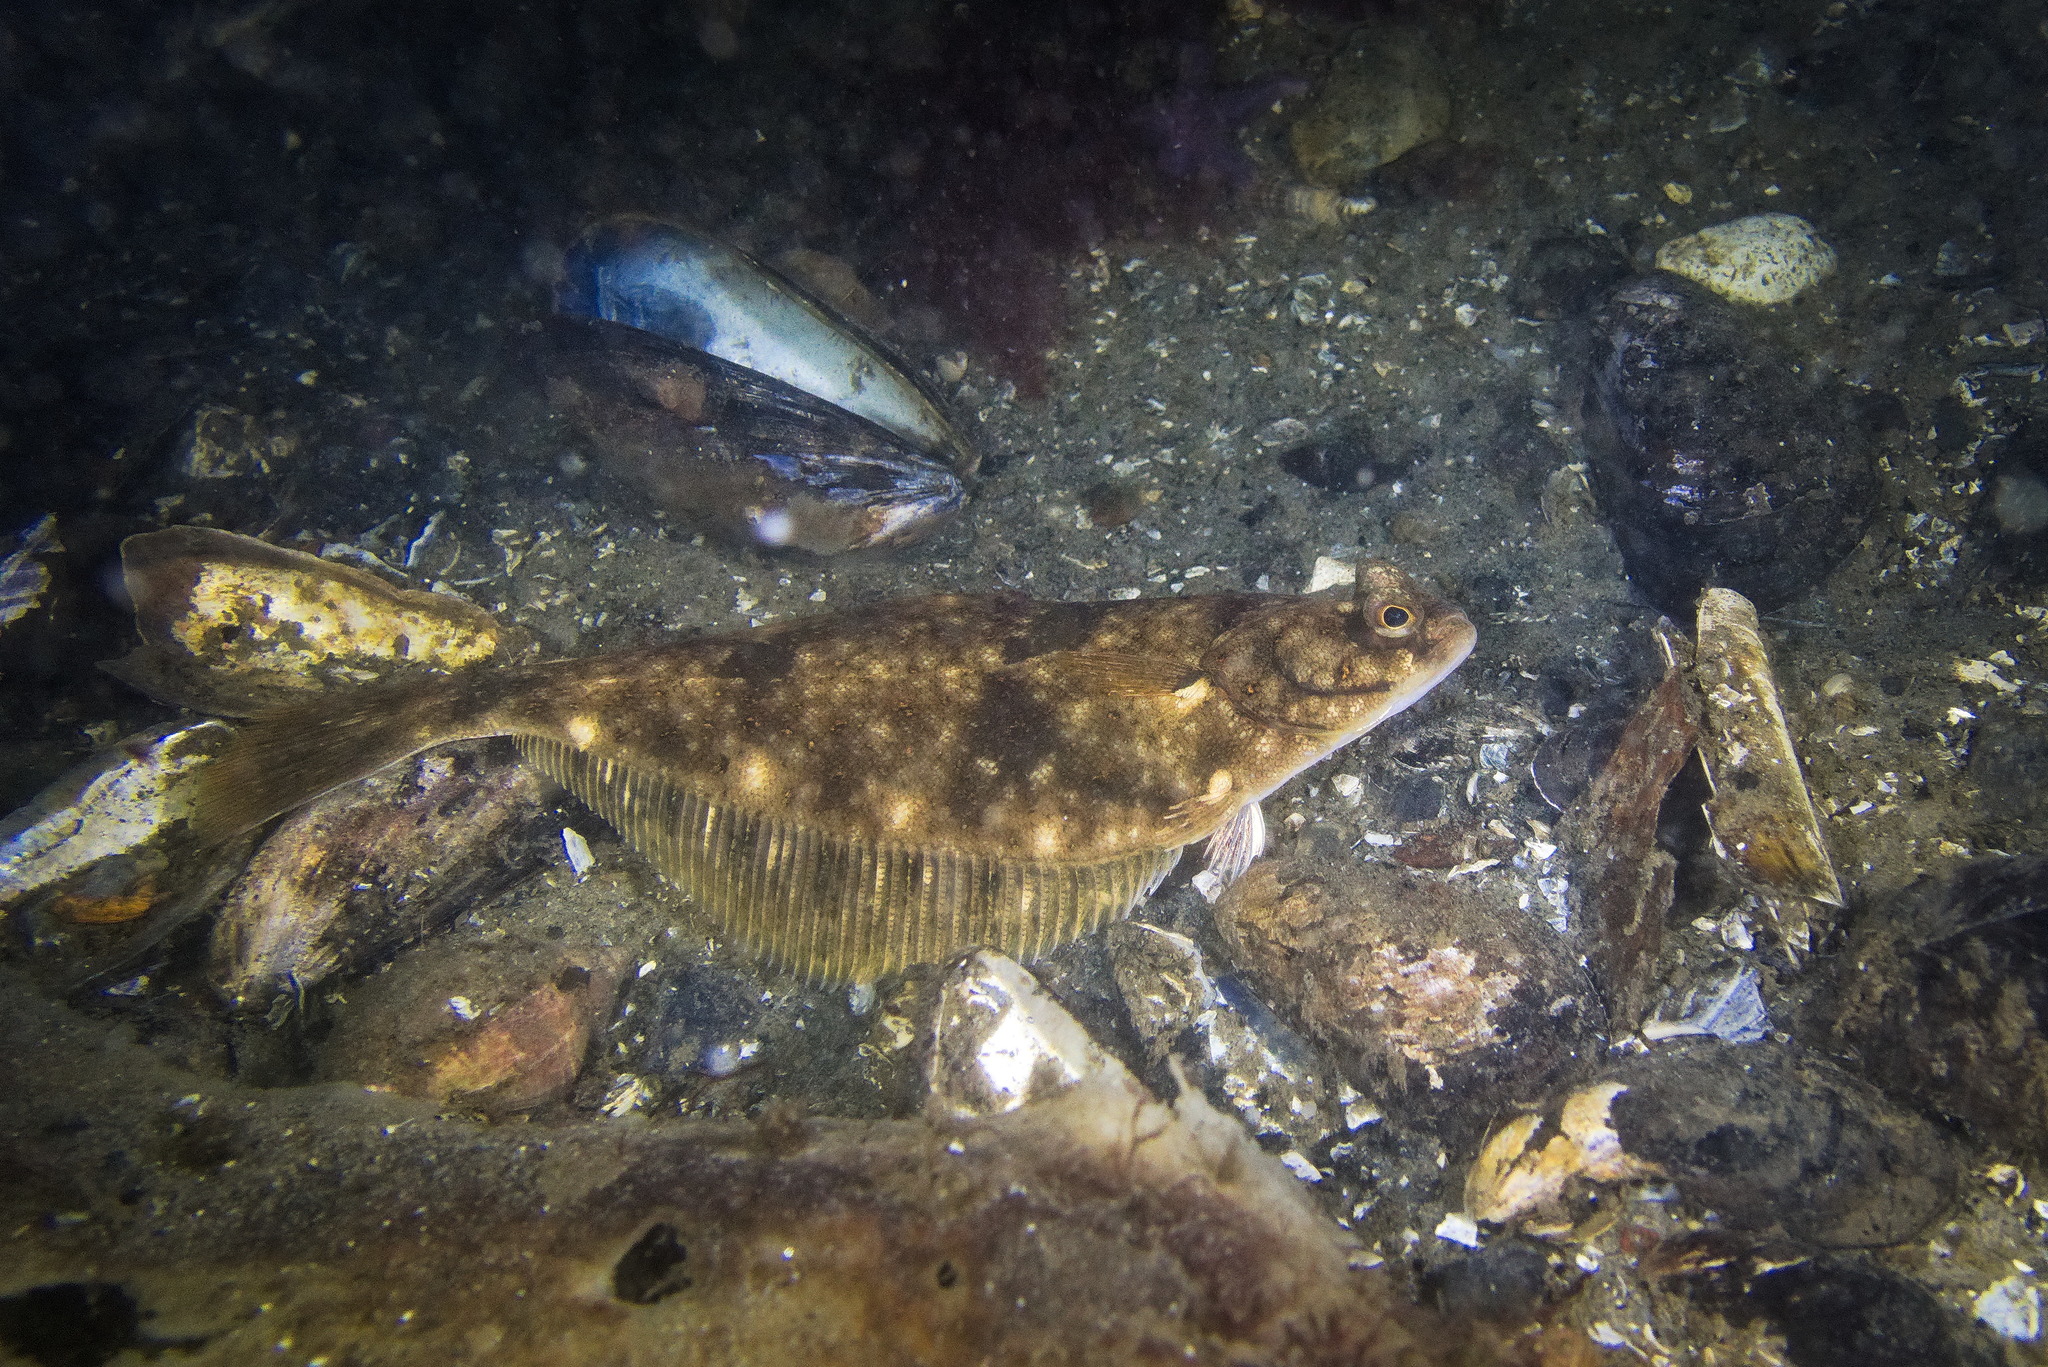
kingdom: Animalia
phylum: Chordata
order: Pleuronectiformes
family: Pleuronectidae
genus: Platichthys
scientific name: Platichthys flesus
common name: European flounder
